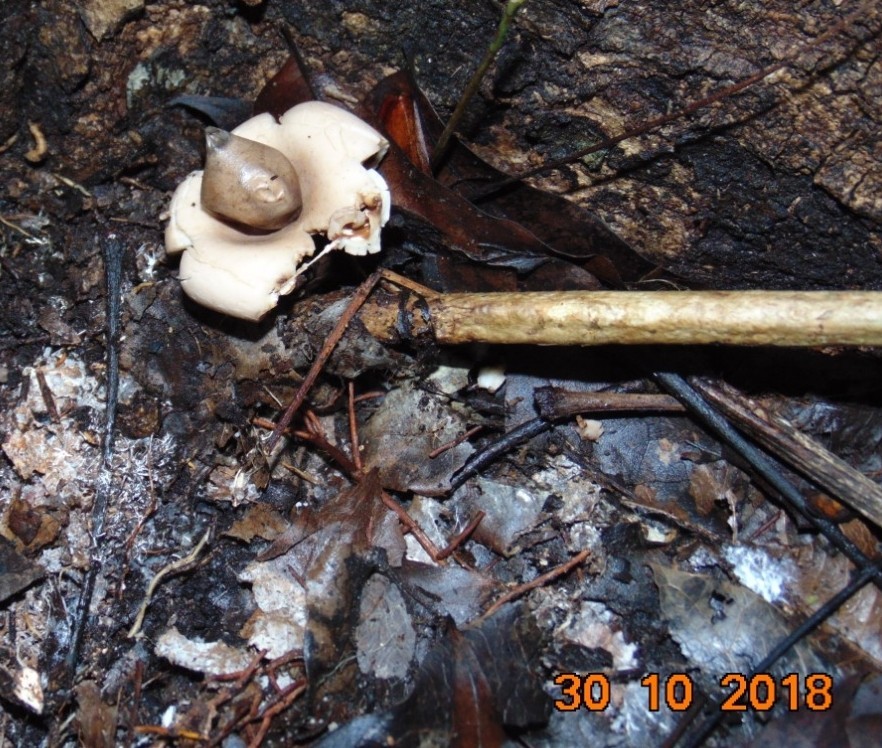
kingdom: Fungi
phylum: Basidiomycota
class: Agaricomycetes
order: Geastrales
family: Geastraceae
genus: Geastrum
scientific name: Geastrum saccatum
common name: Rounded earthstar
